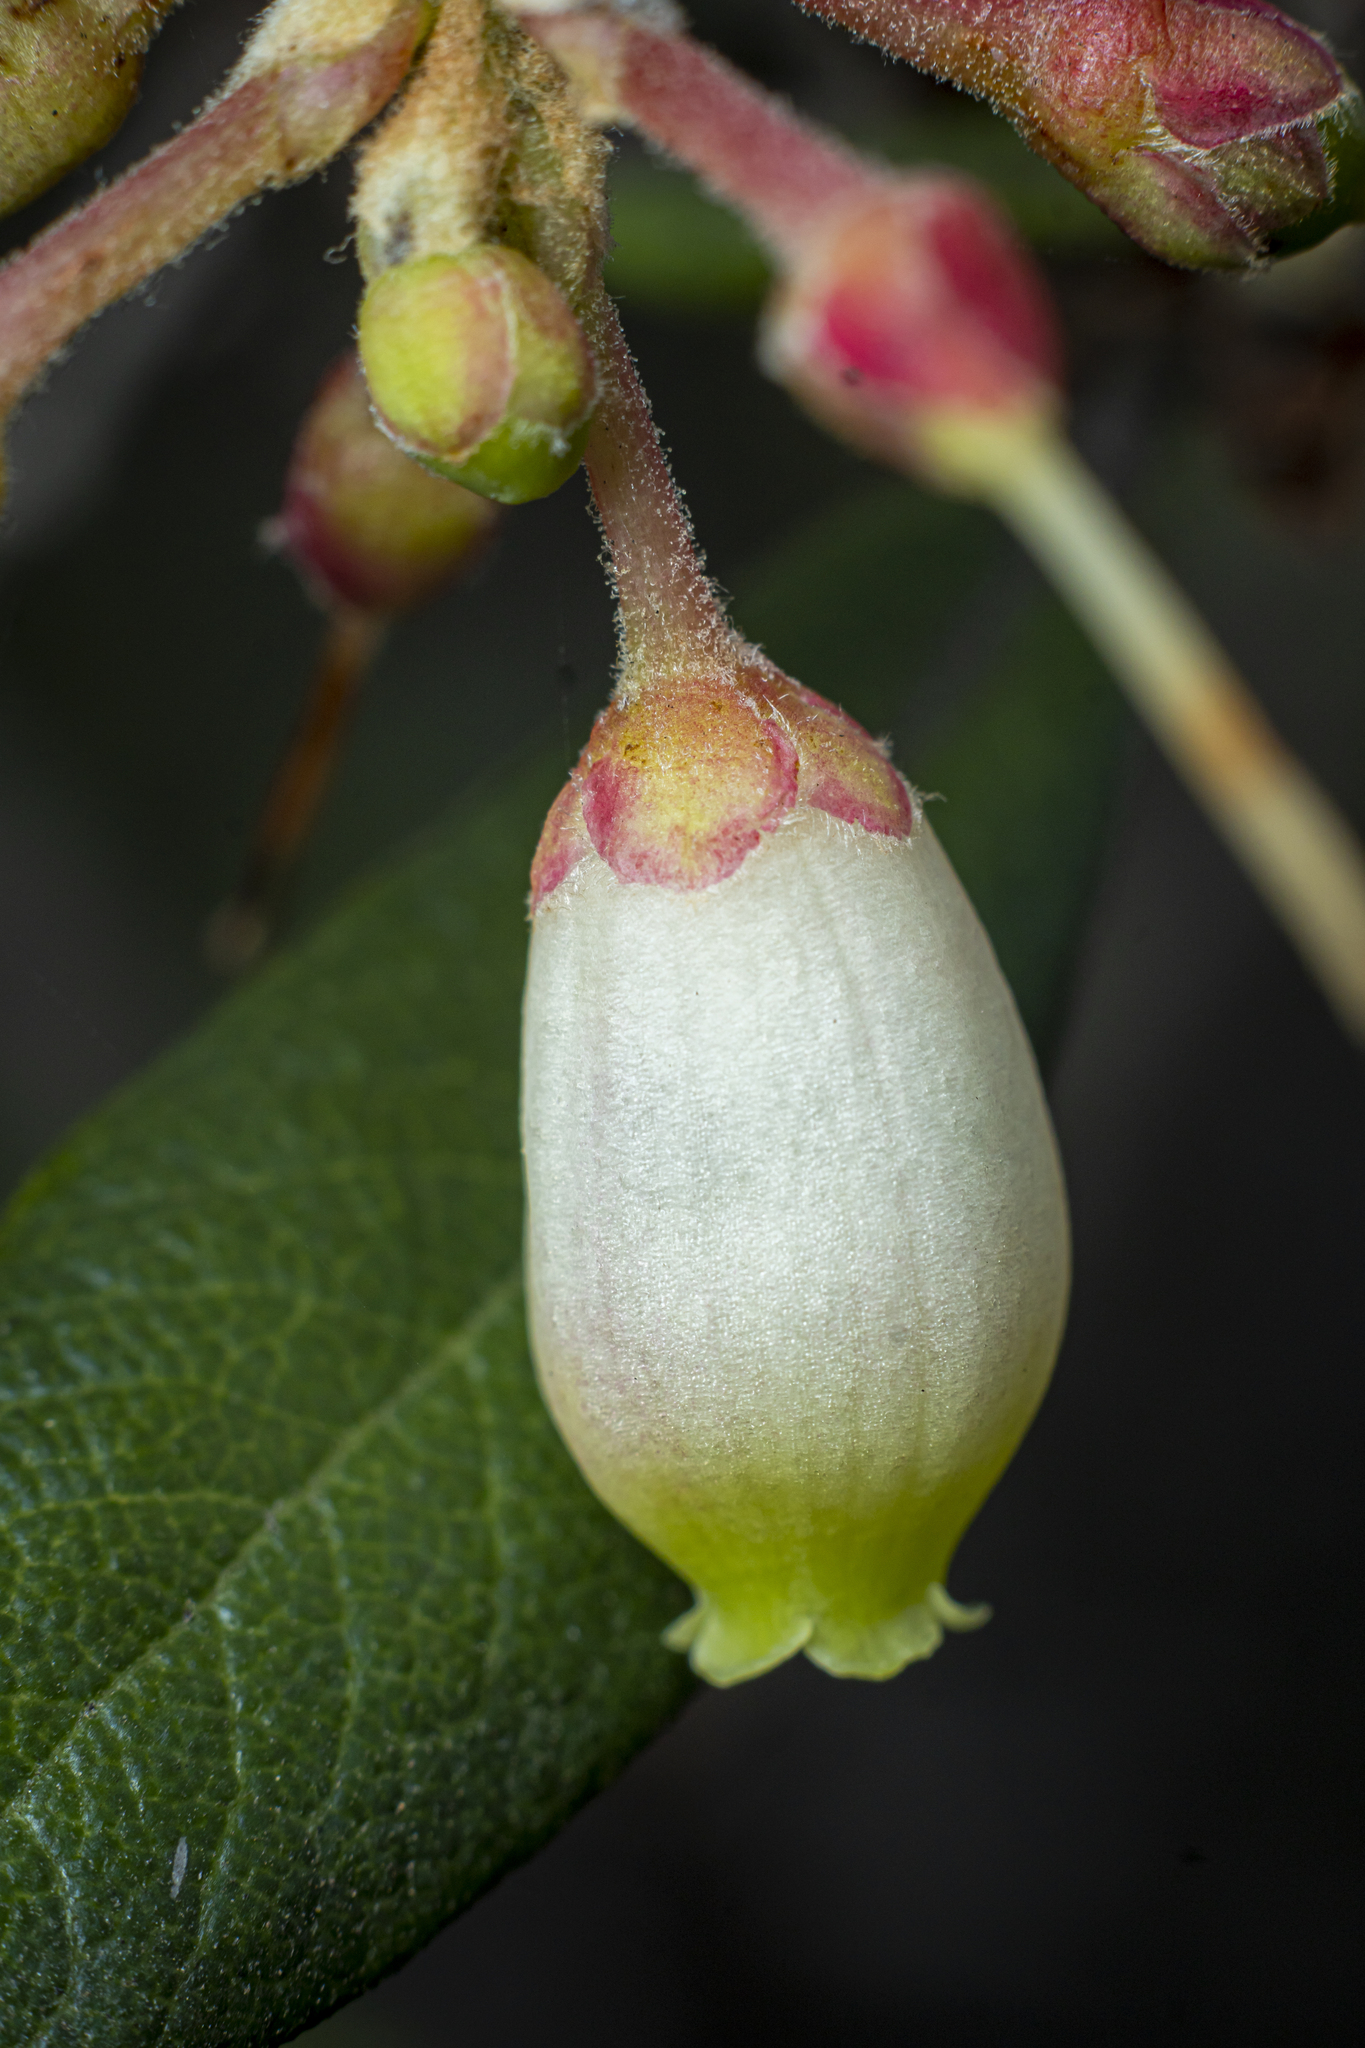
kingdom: Plantae
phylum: Tracheophyta
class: Magnoliopsida
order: Ericales
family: Ericaceae
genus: Arctostaphylos
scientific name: Arctostaphylos bicolor
